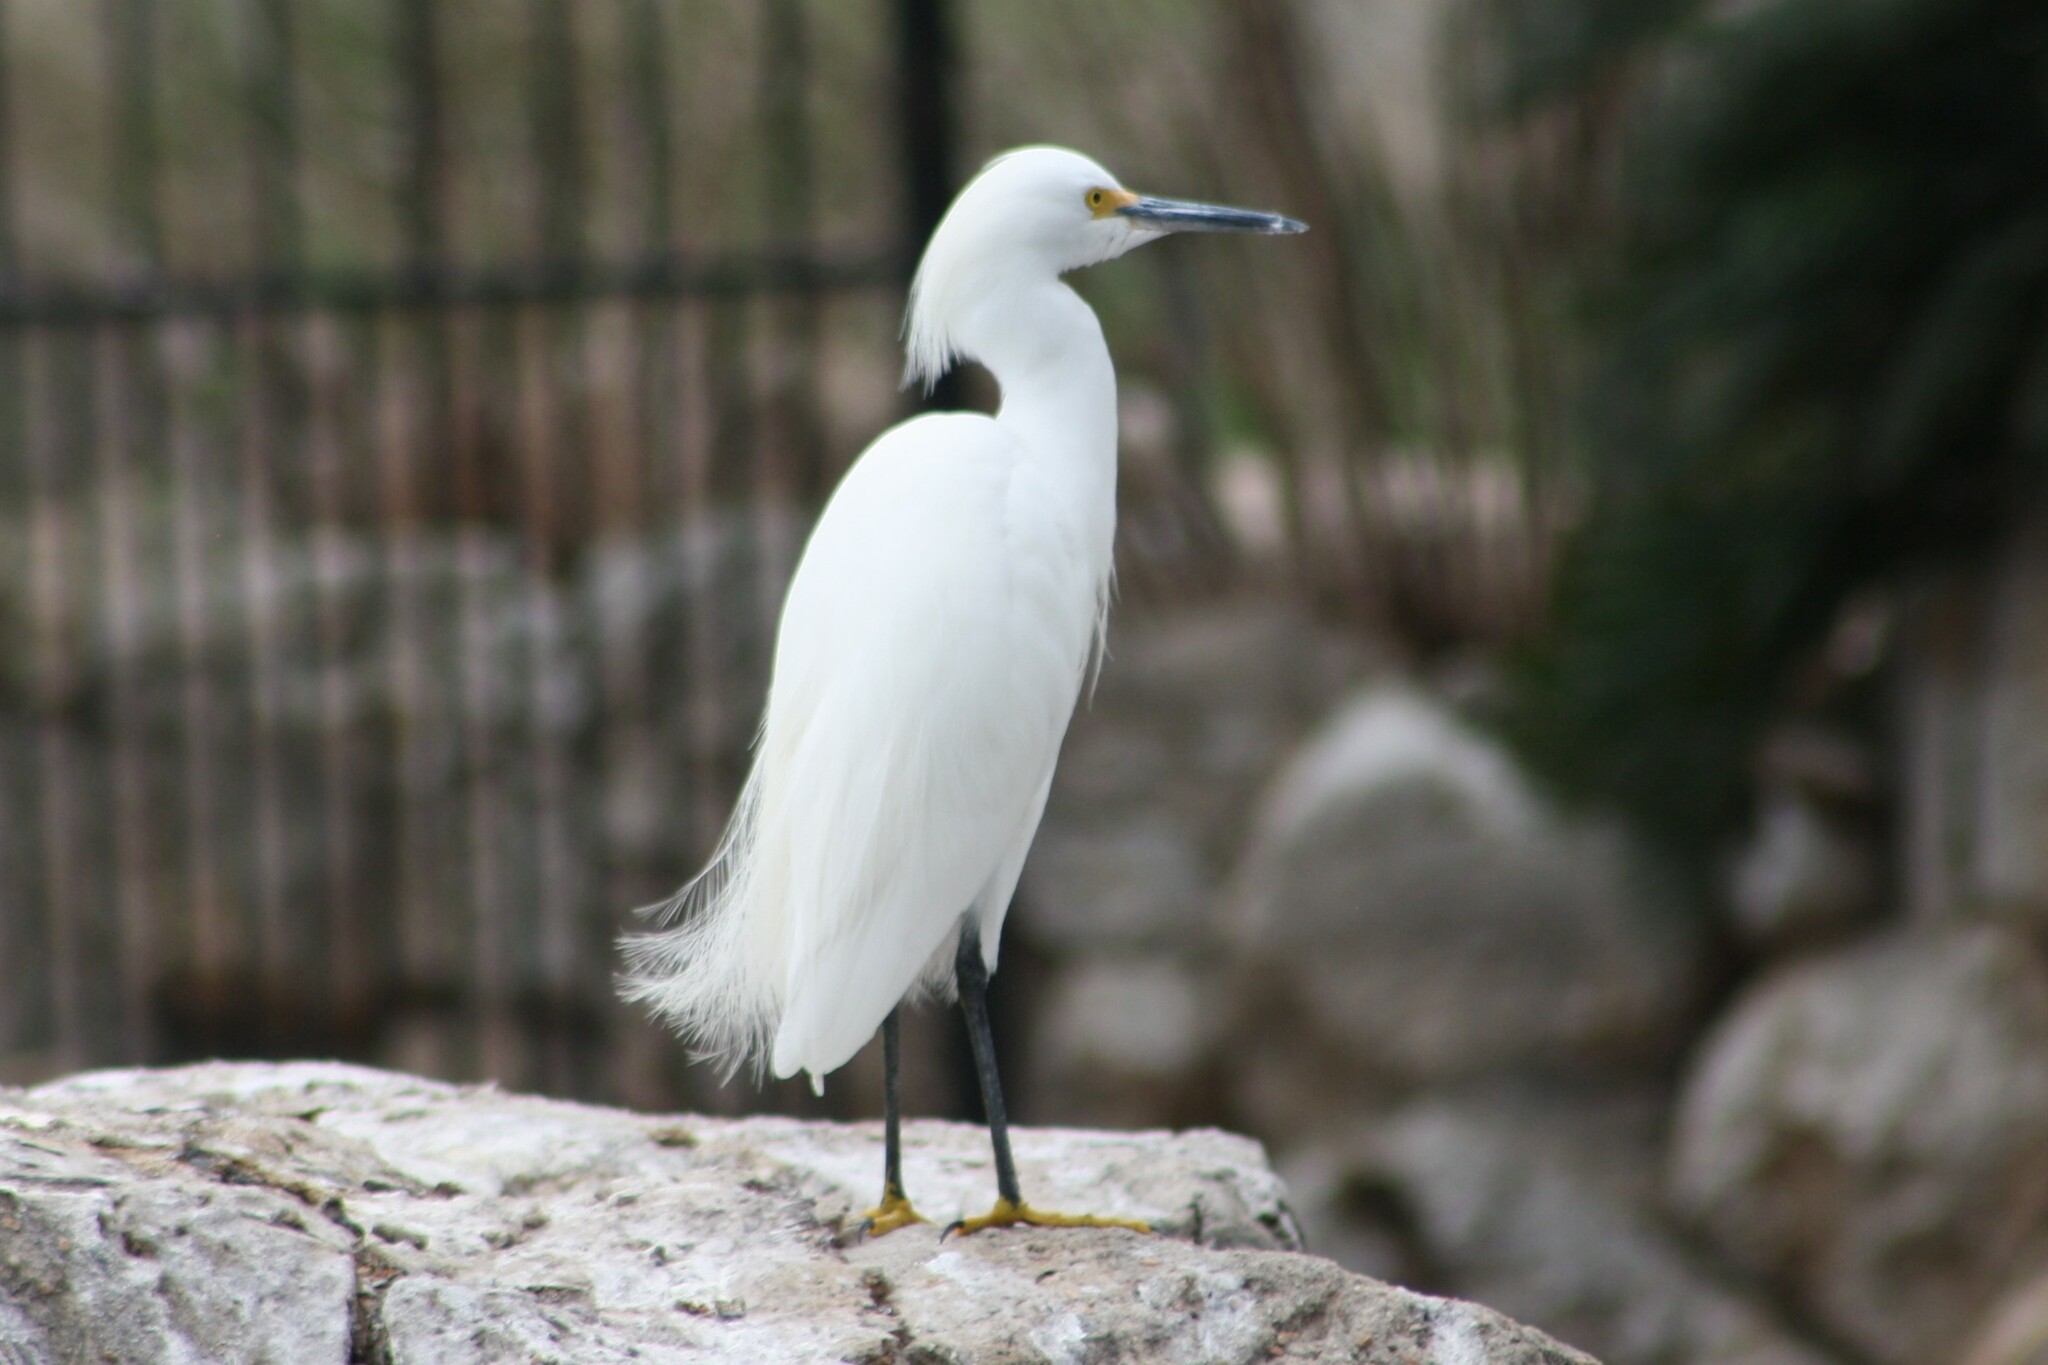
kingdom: Animalia
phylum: Chordata
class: Aves
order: Pelecaniformes
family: Ardeidae
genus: Egretta
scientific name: Egretta thula
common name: Snowy egret
